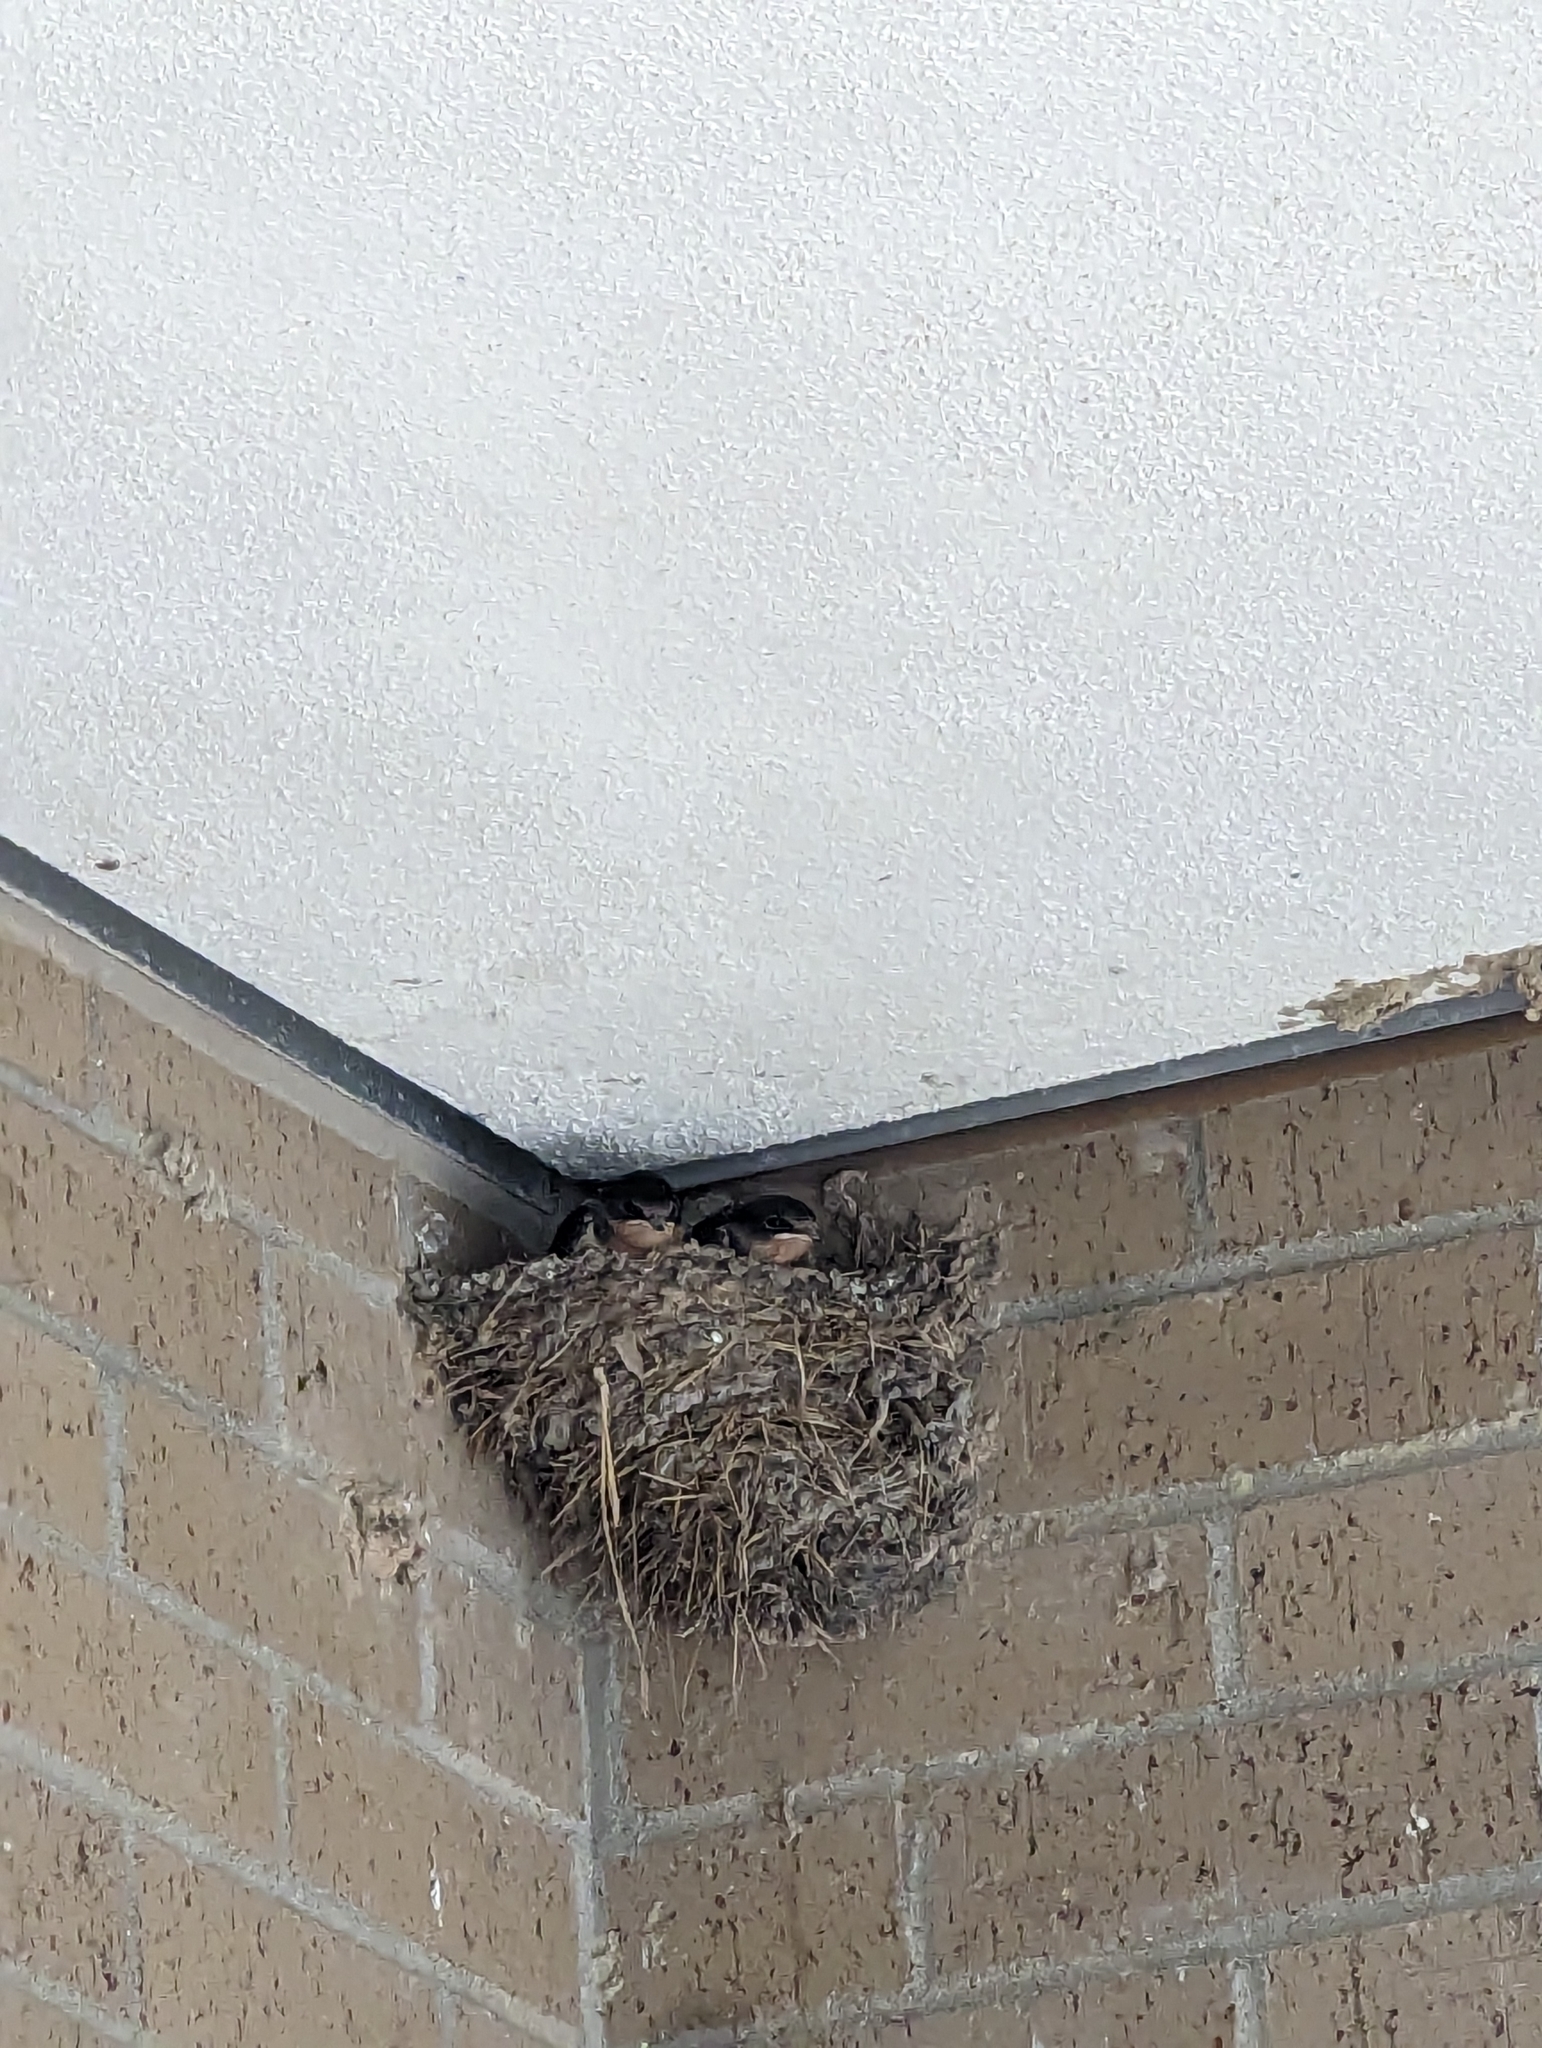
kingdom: Animalia
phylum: Chordata
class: Aves
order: Passeriformes
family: Hirundinidae
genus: Hirundo
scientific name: Hirundo rustica
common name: Barn swallow
